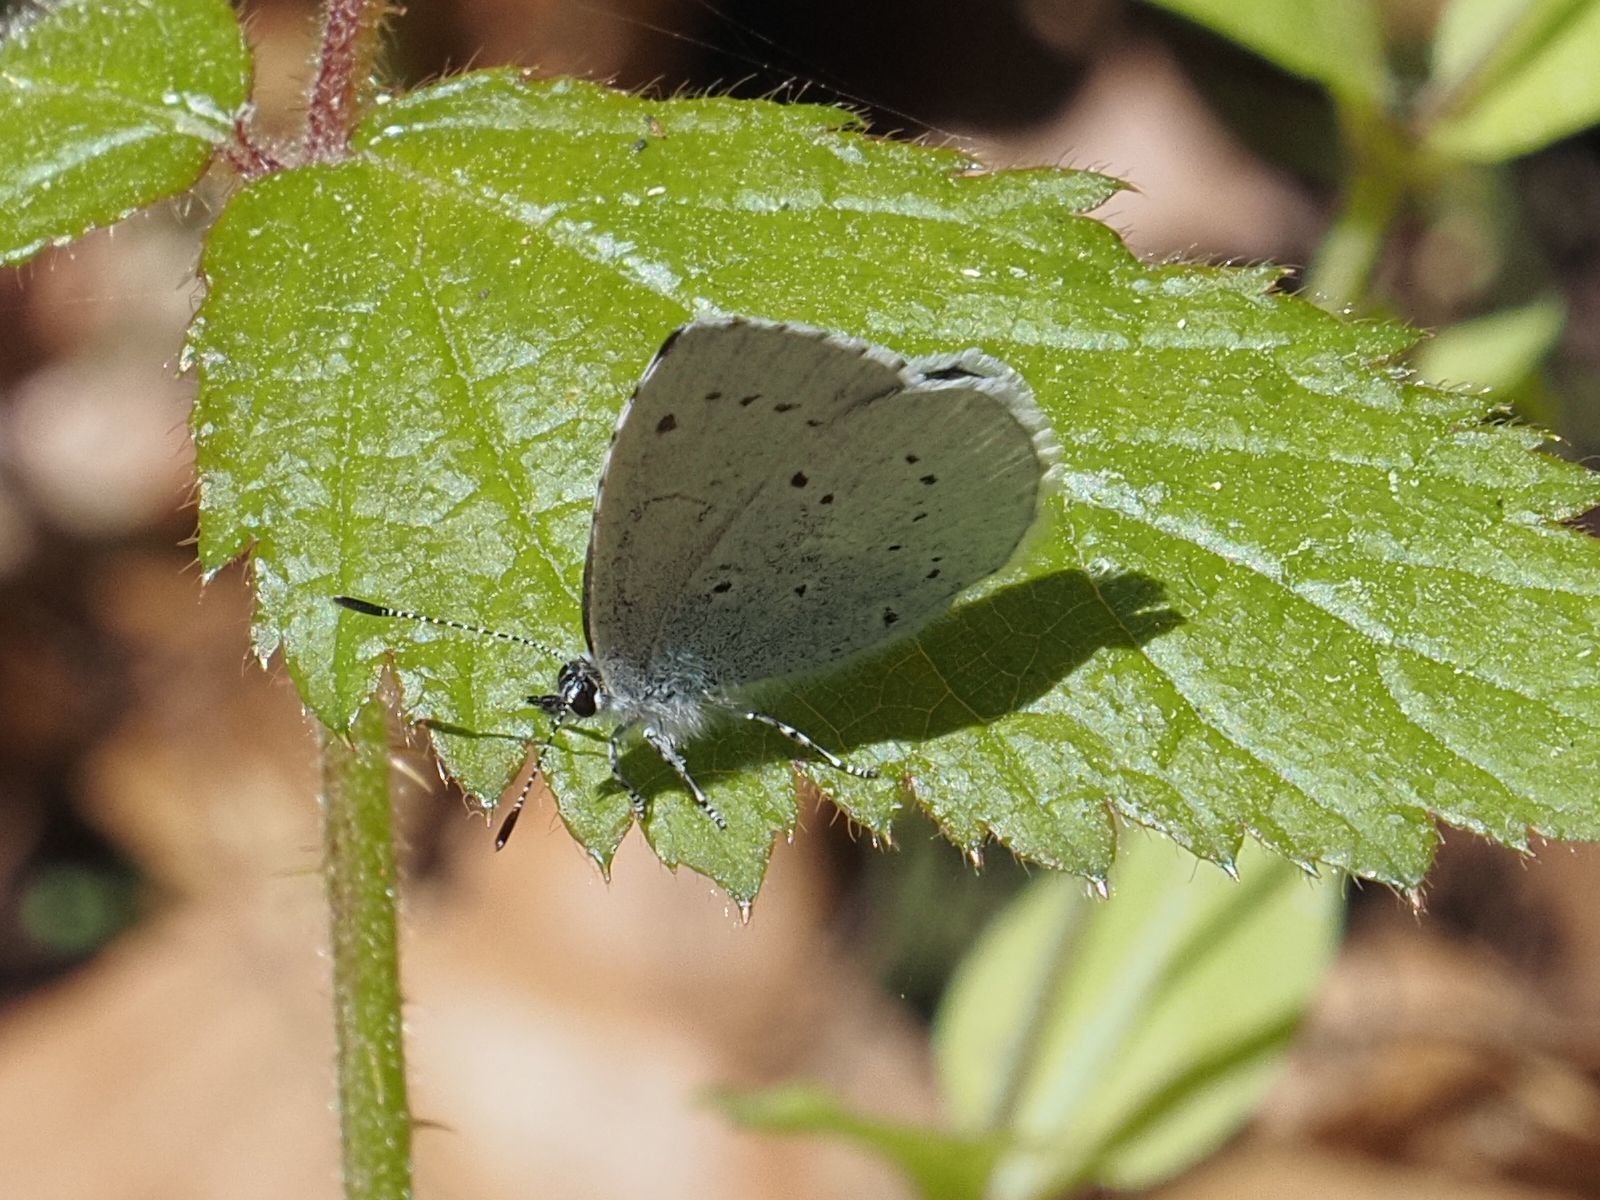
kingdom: Animalia
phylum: Arthropoda
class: Insecta
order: Lepidoptera
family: Lycaenidae
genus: Celastrina
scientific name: Celastrina argiolus
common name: Holly blue
